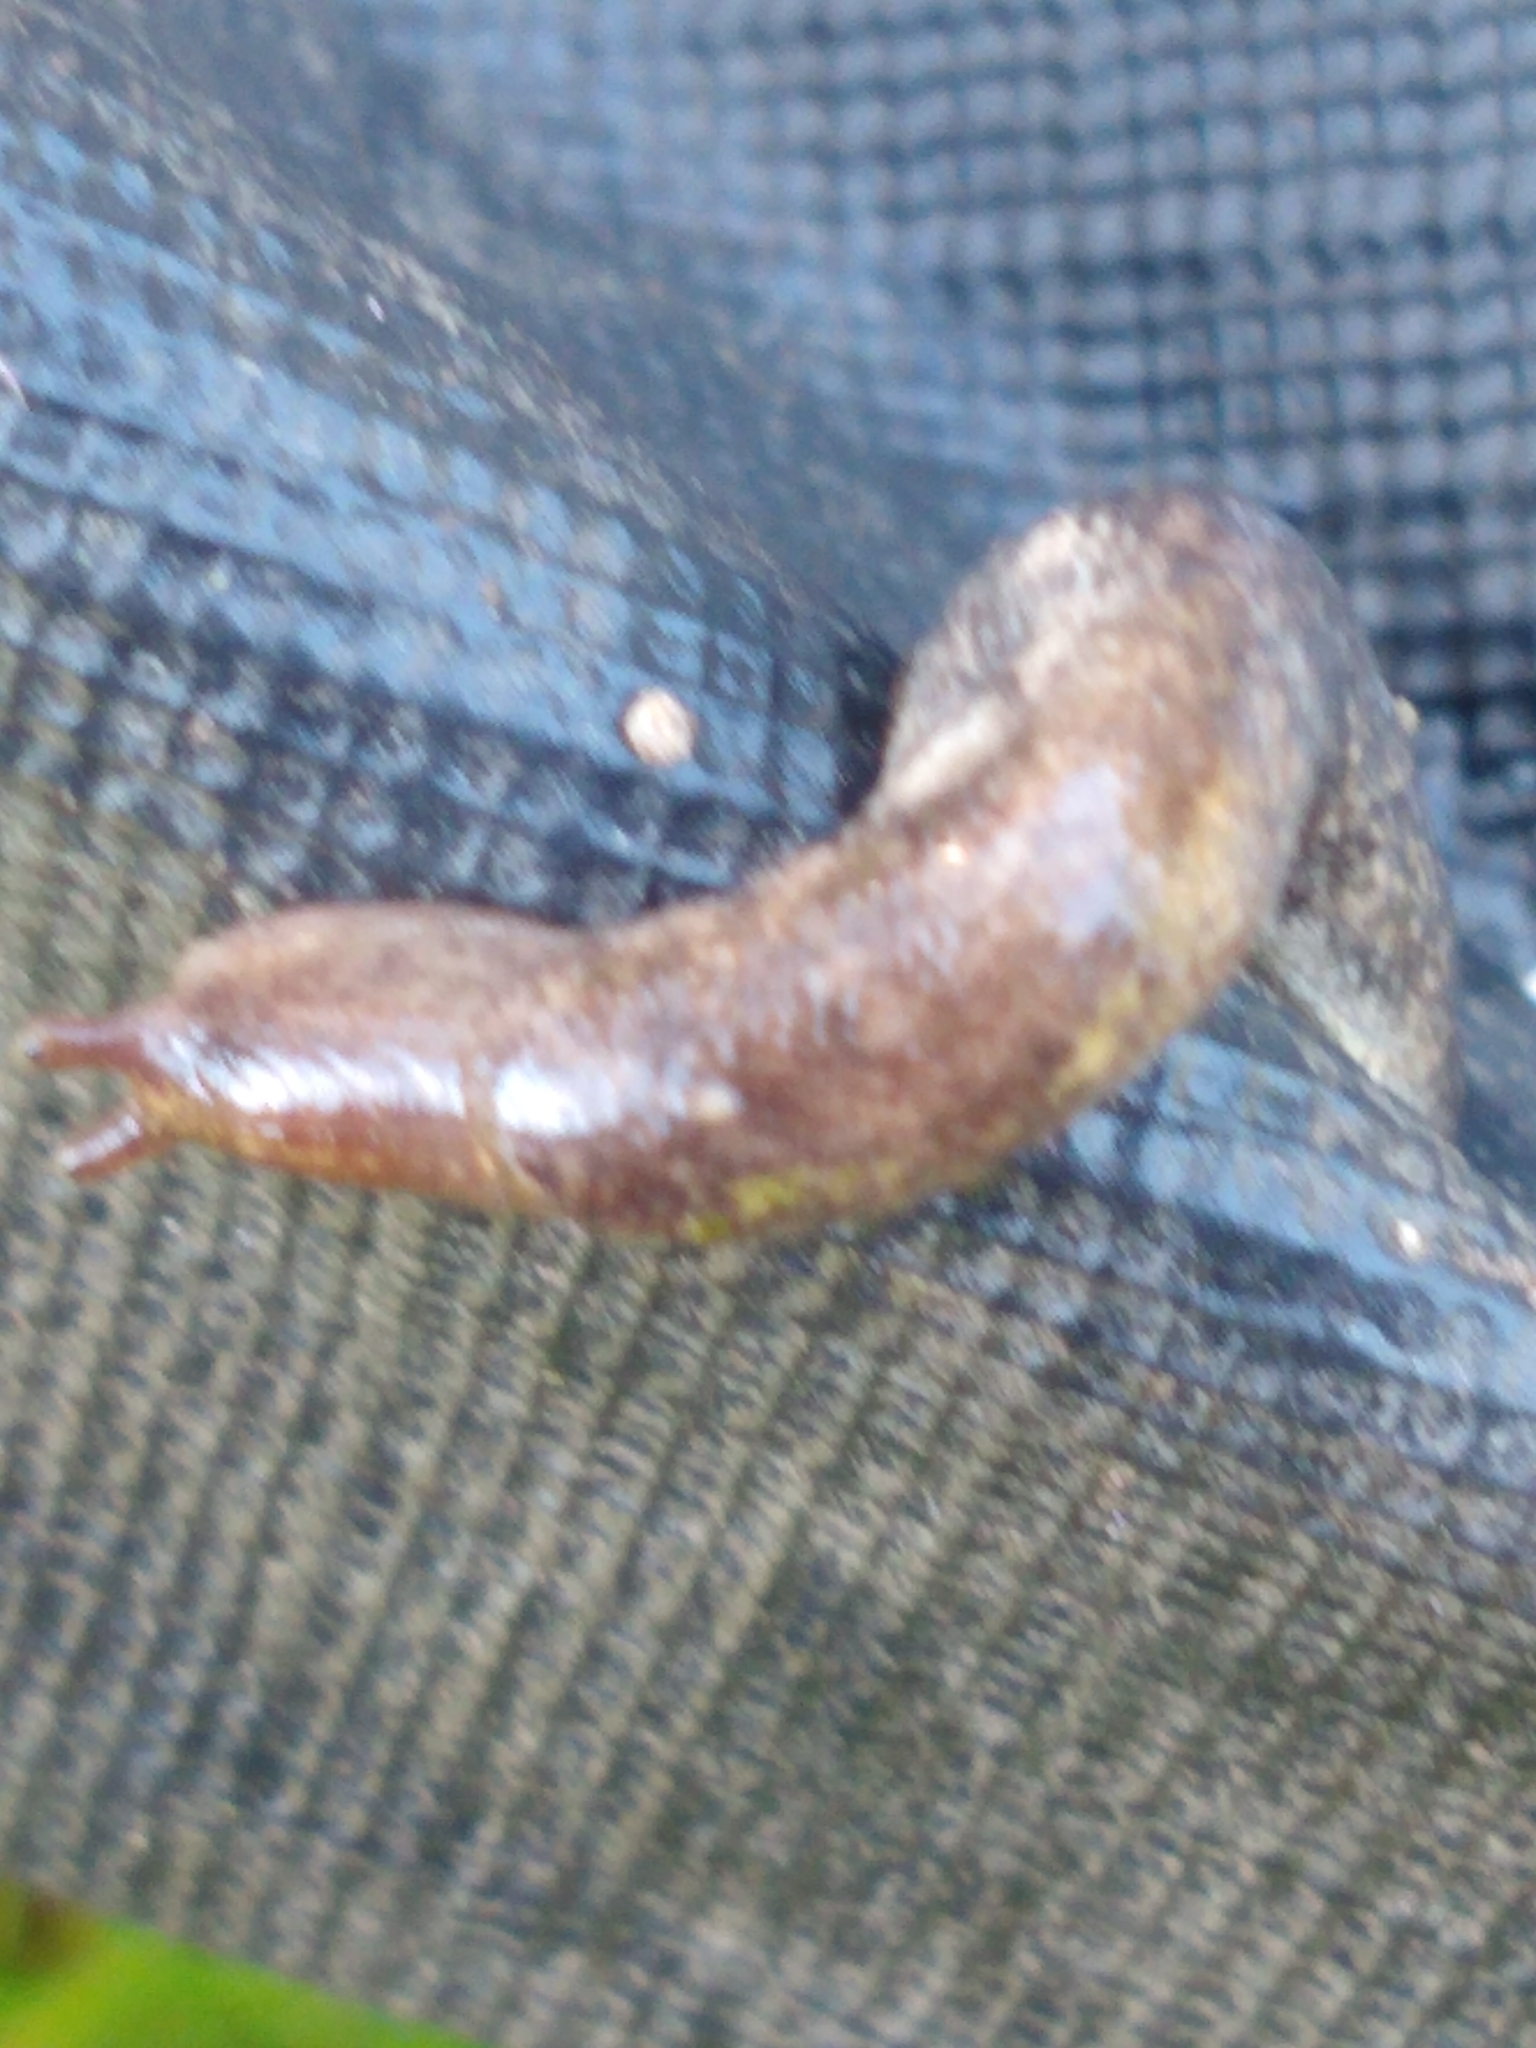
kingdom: Animalia
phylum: Mollusca
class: Gastropoda
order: Stylommatophora
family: Agriolimacidae
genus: Deroceras
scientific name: Deroceras reticulatum
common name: Gray field slug
